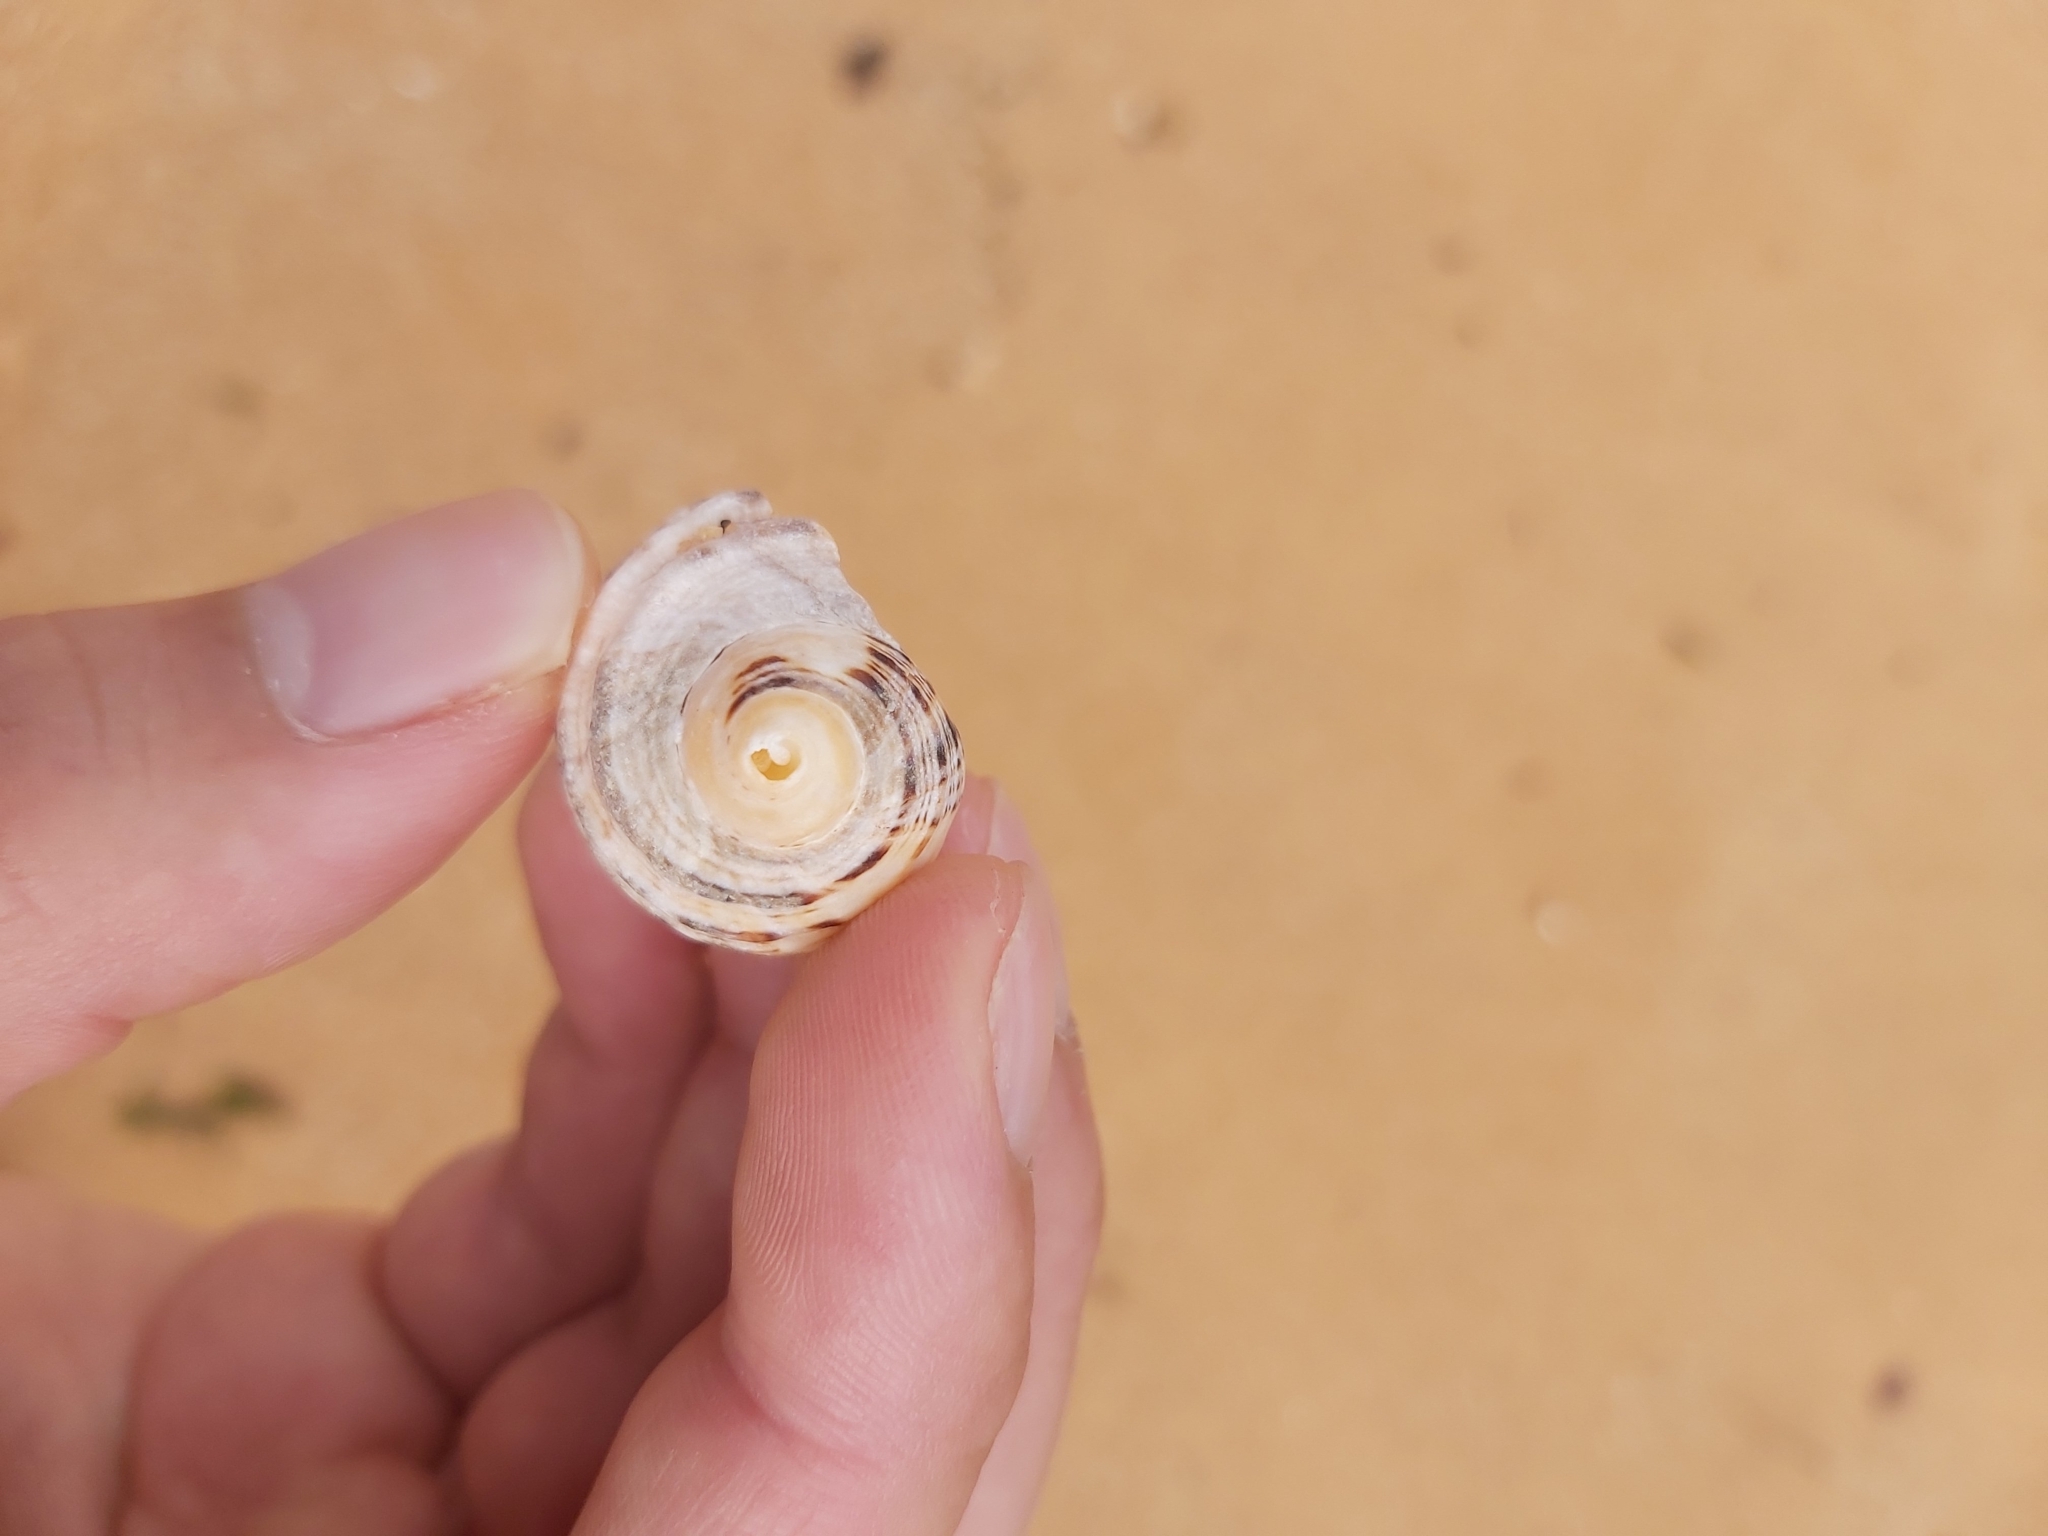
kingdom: Animalia
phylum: Mollusca
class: Gastropoda
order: Neogastropoda
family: Muricidae
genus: Dicathais
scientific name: Dicathais orbita
